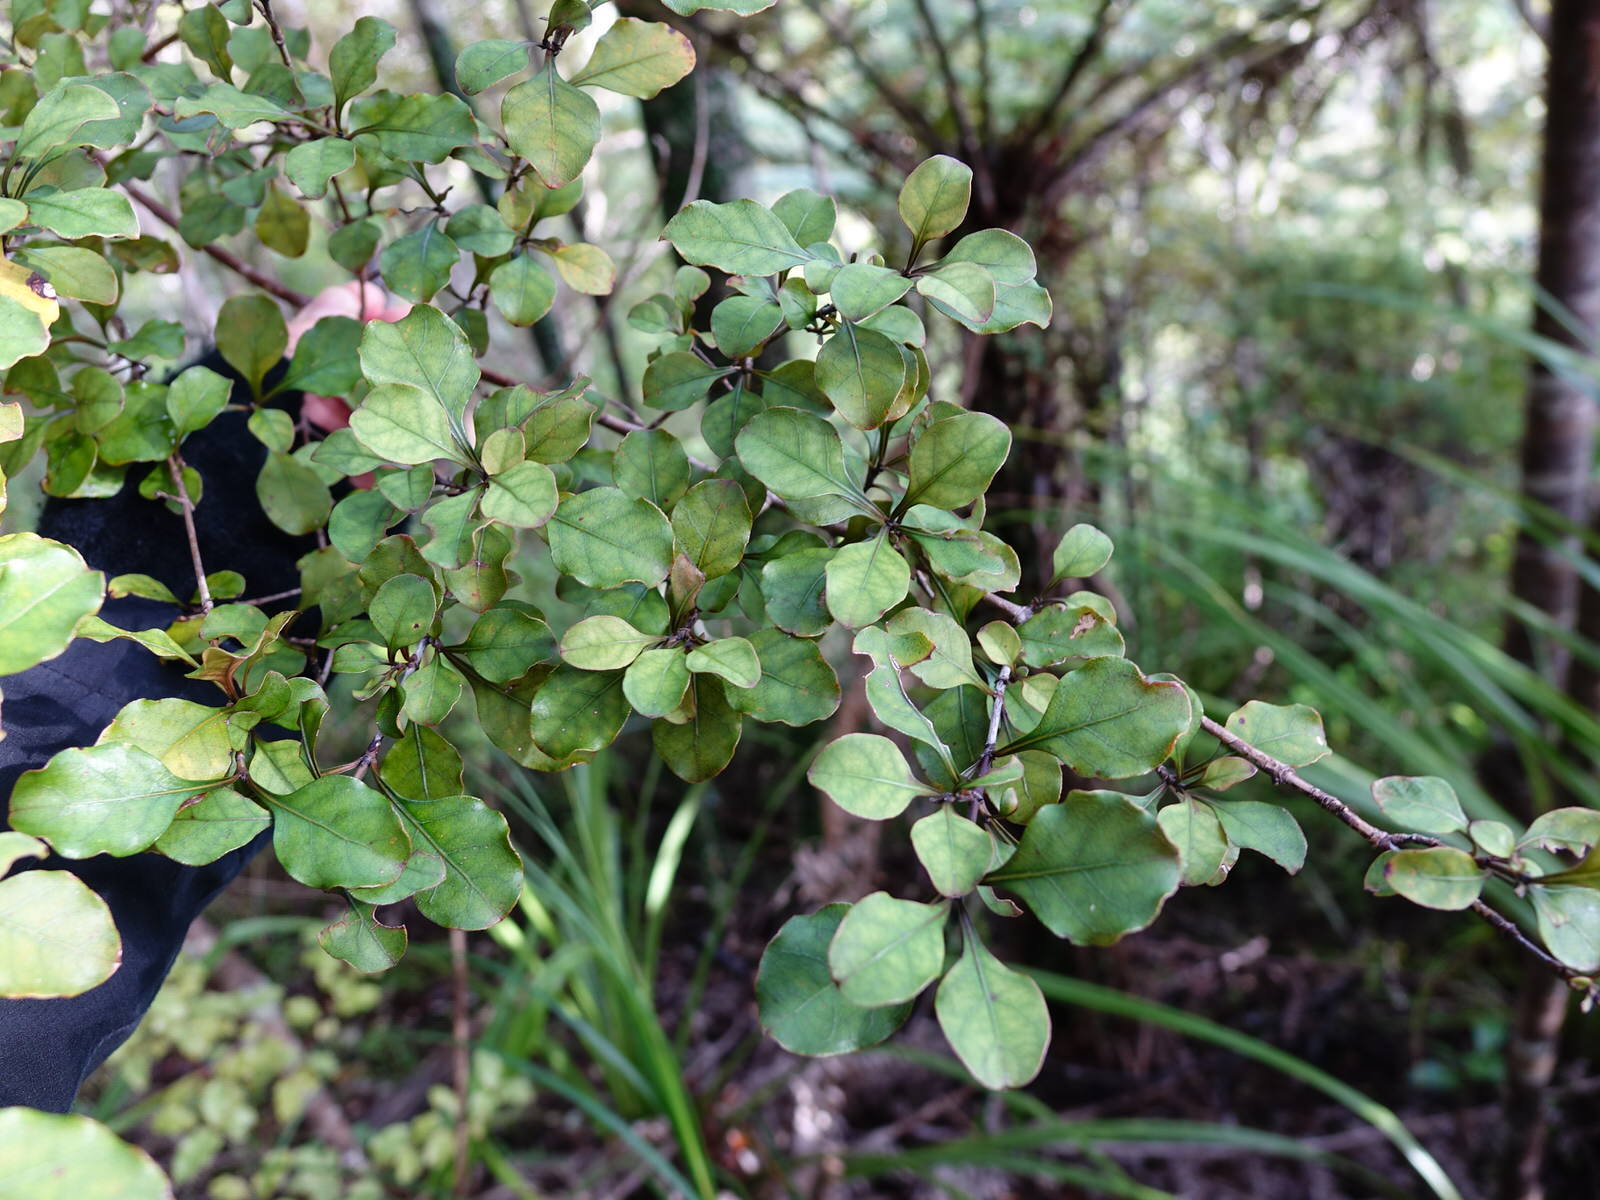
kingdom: Plantae
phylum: Tracheophyta
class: Magnoliopsida
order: Gentianales
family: Rubiaceae
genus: Coprosma
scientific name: Coprosma arborea
